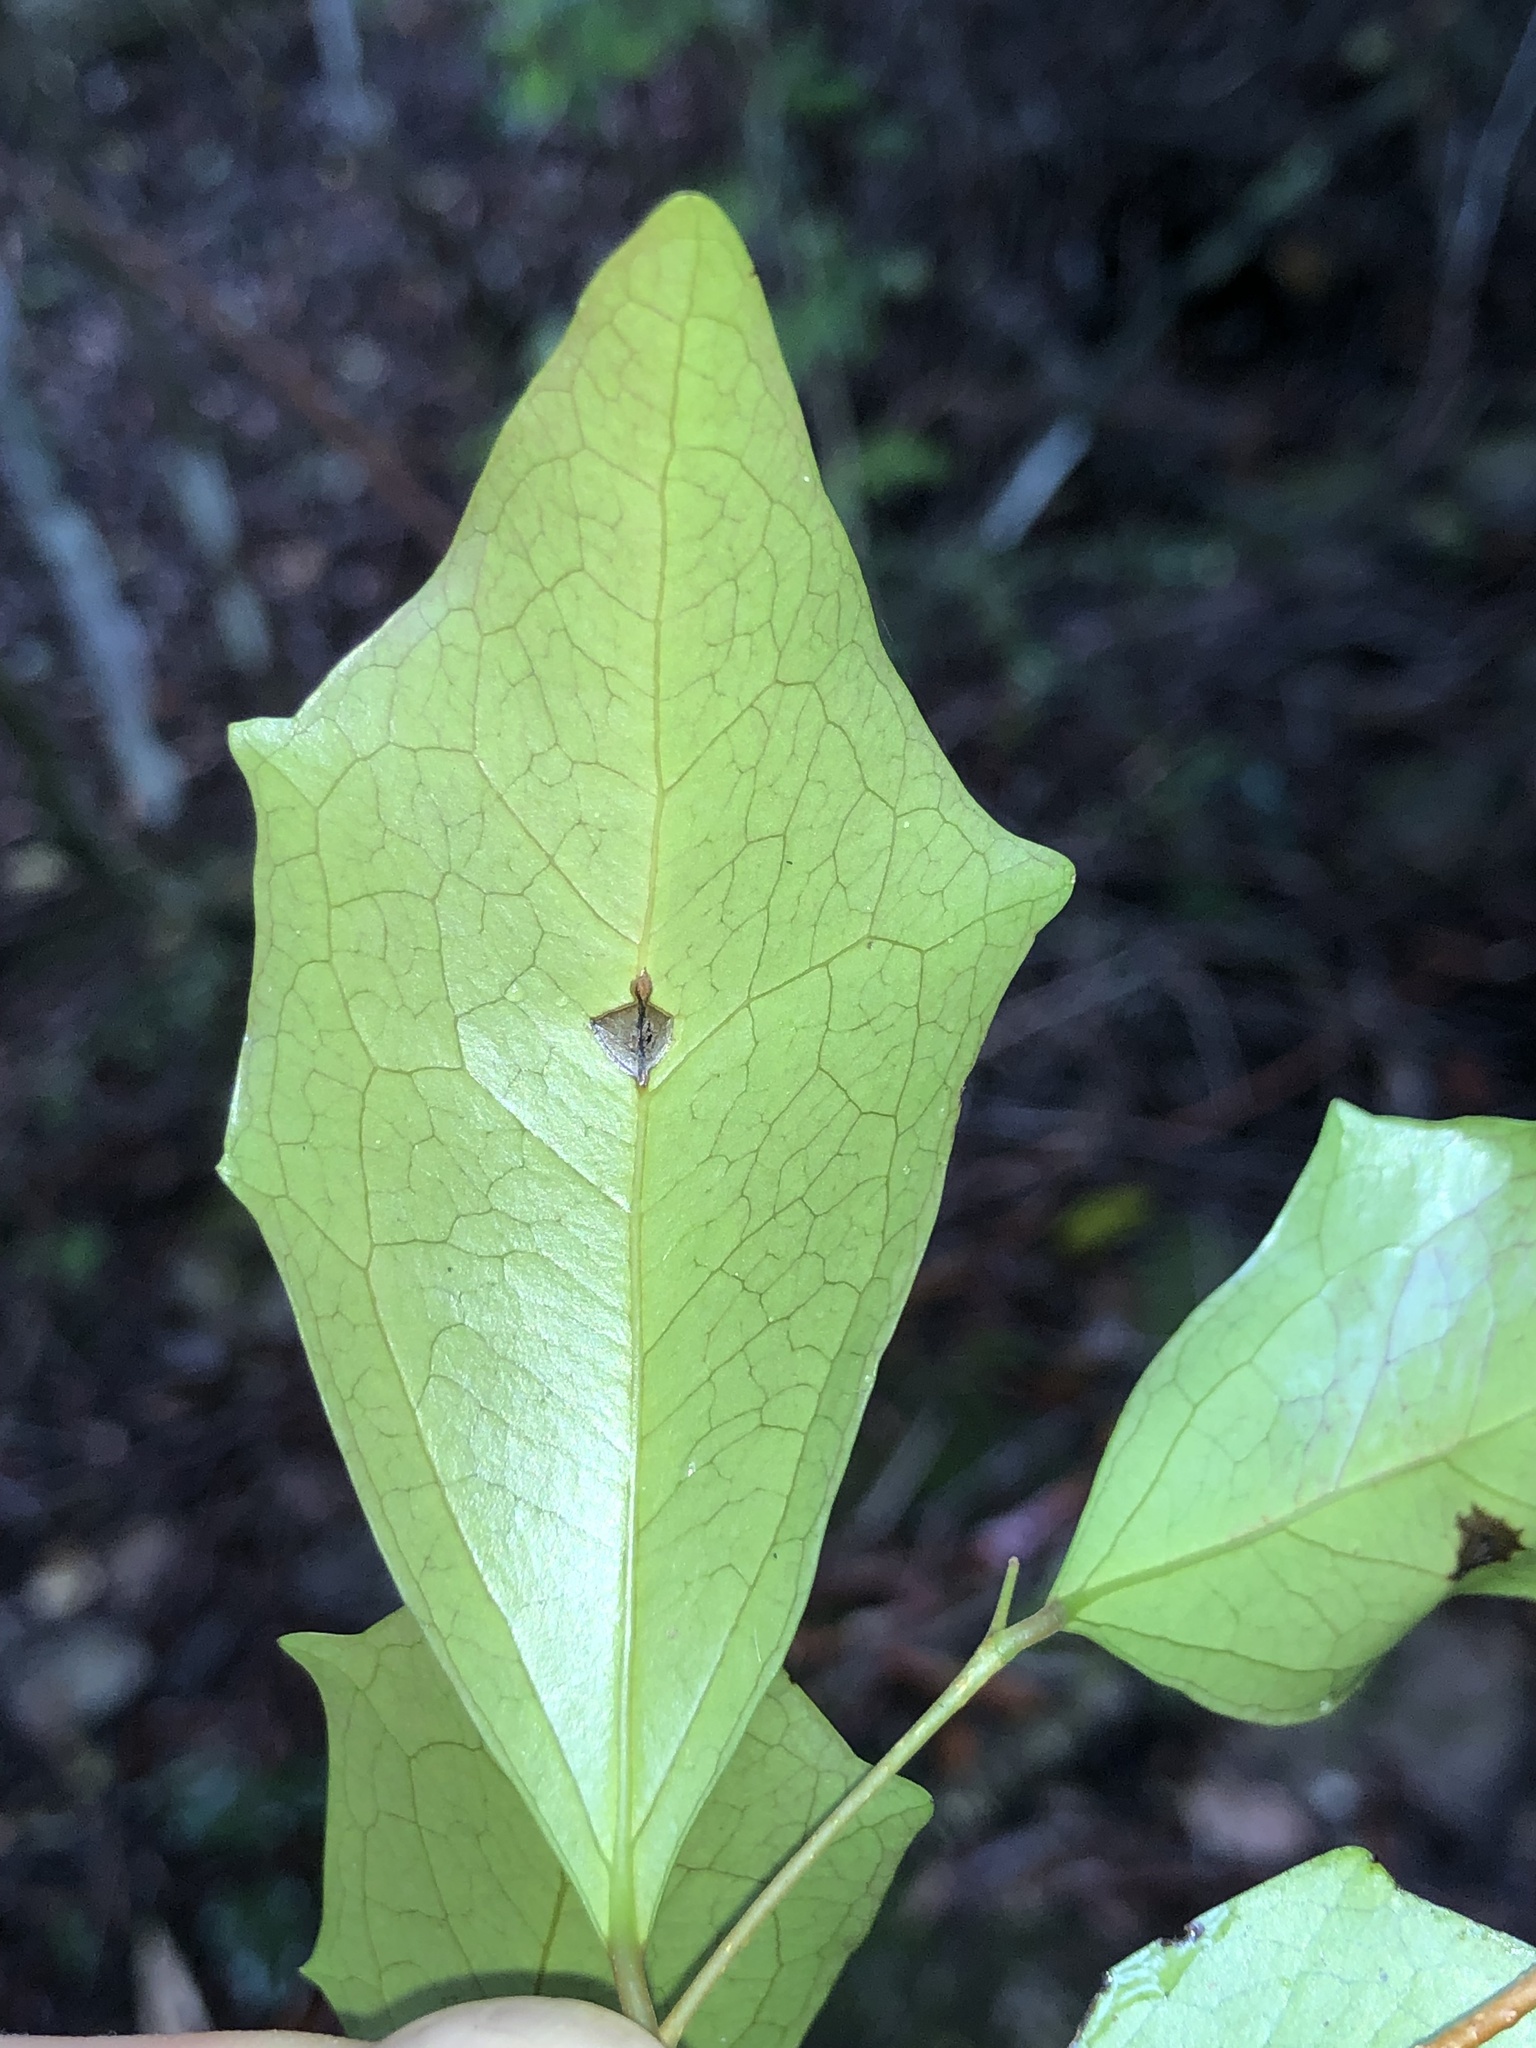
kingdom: Plantae
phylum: Tracheophyta
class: Magnoliopsida
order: Malpighiales
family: Salicaceae
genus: Scolopia
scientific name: Scolopia braunii
